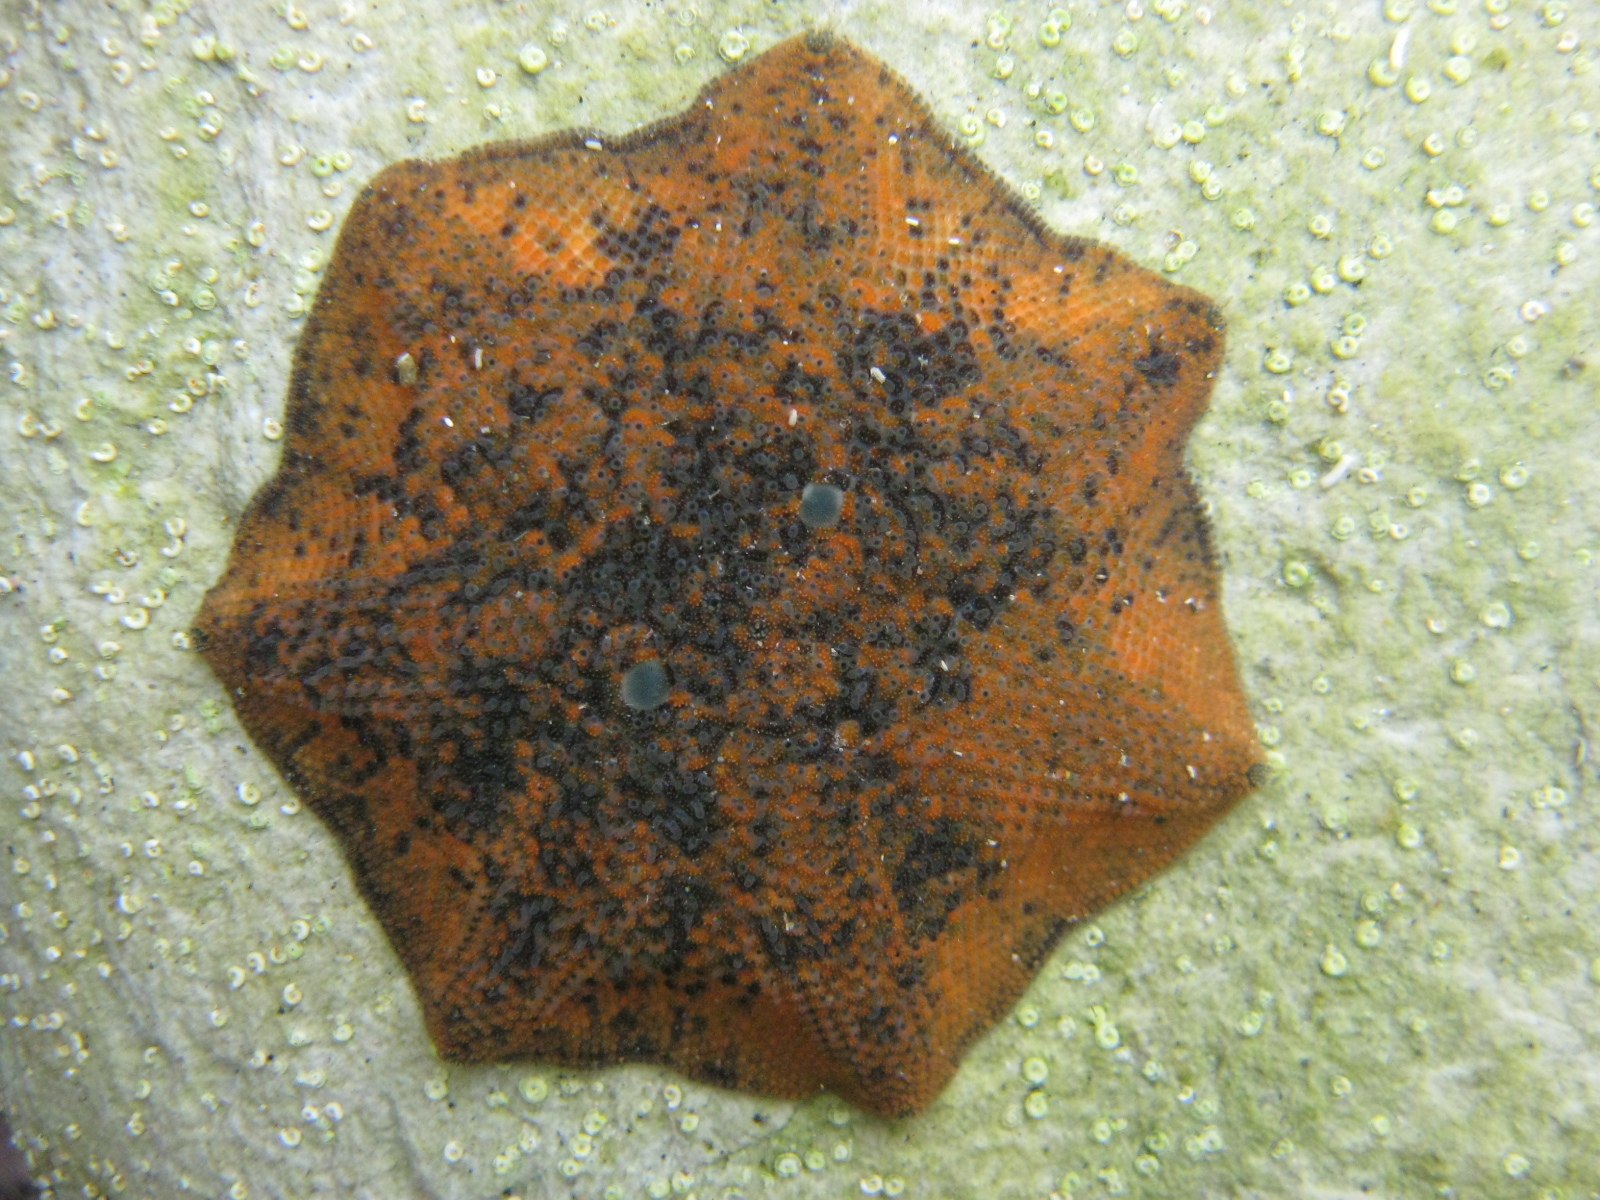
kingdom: Animalia
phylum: Echinodermata
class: Asteroidea
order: Valvatida
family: Asterinidae
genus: Patiriella
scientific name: Patiriella regularis
